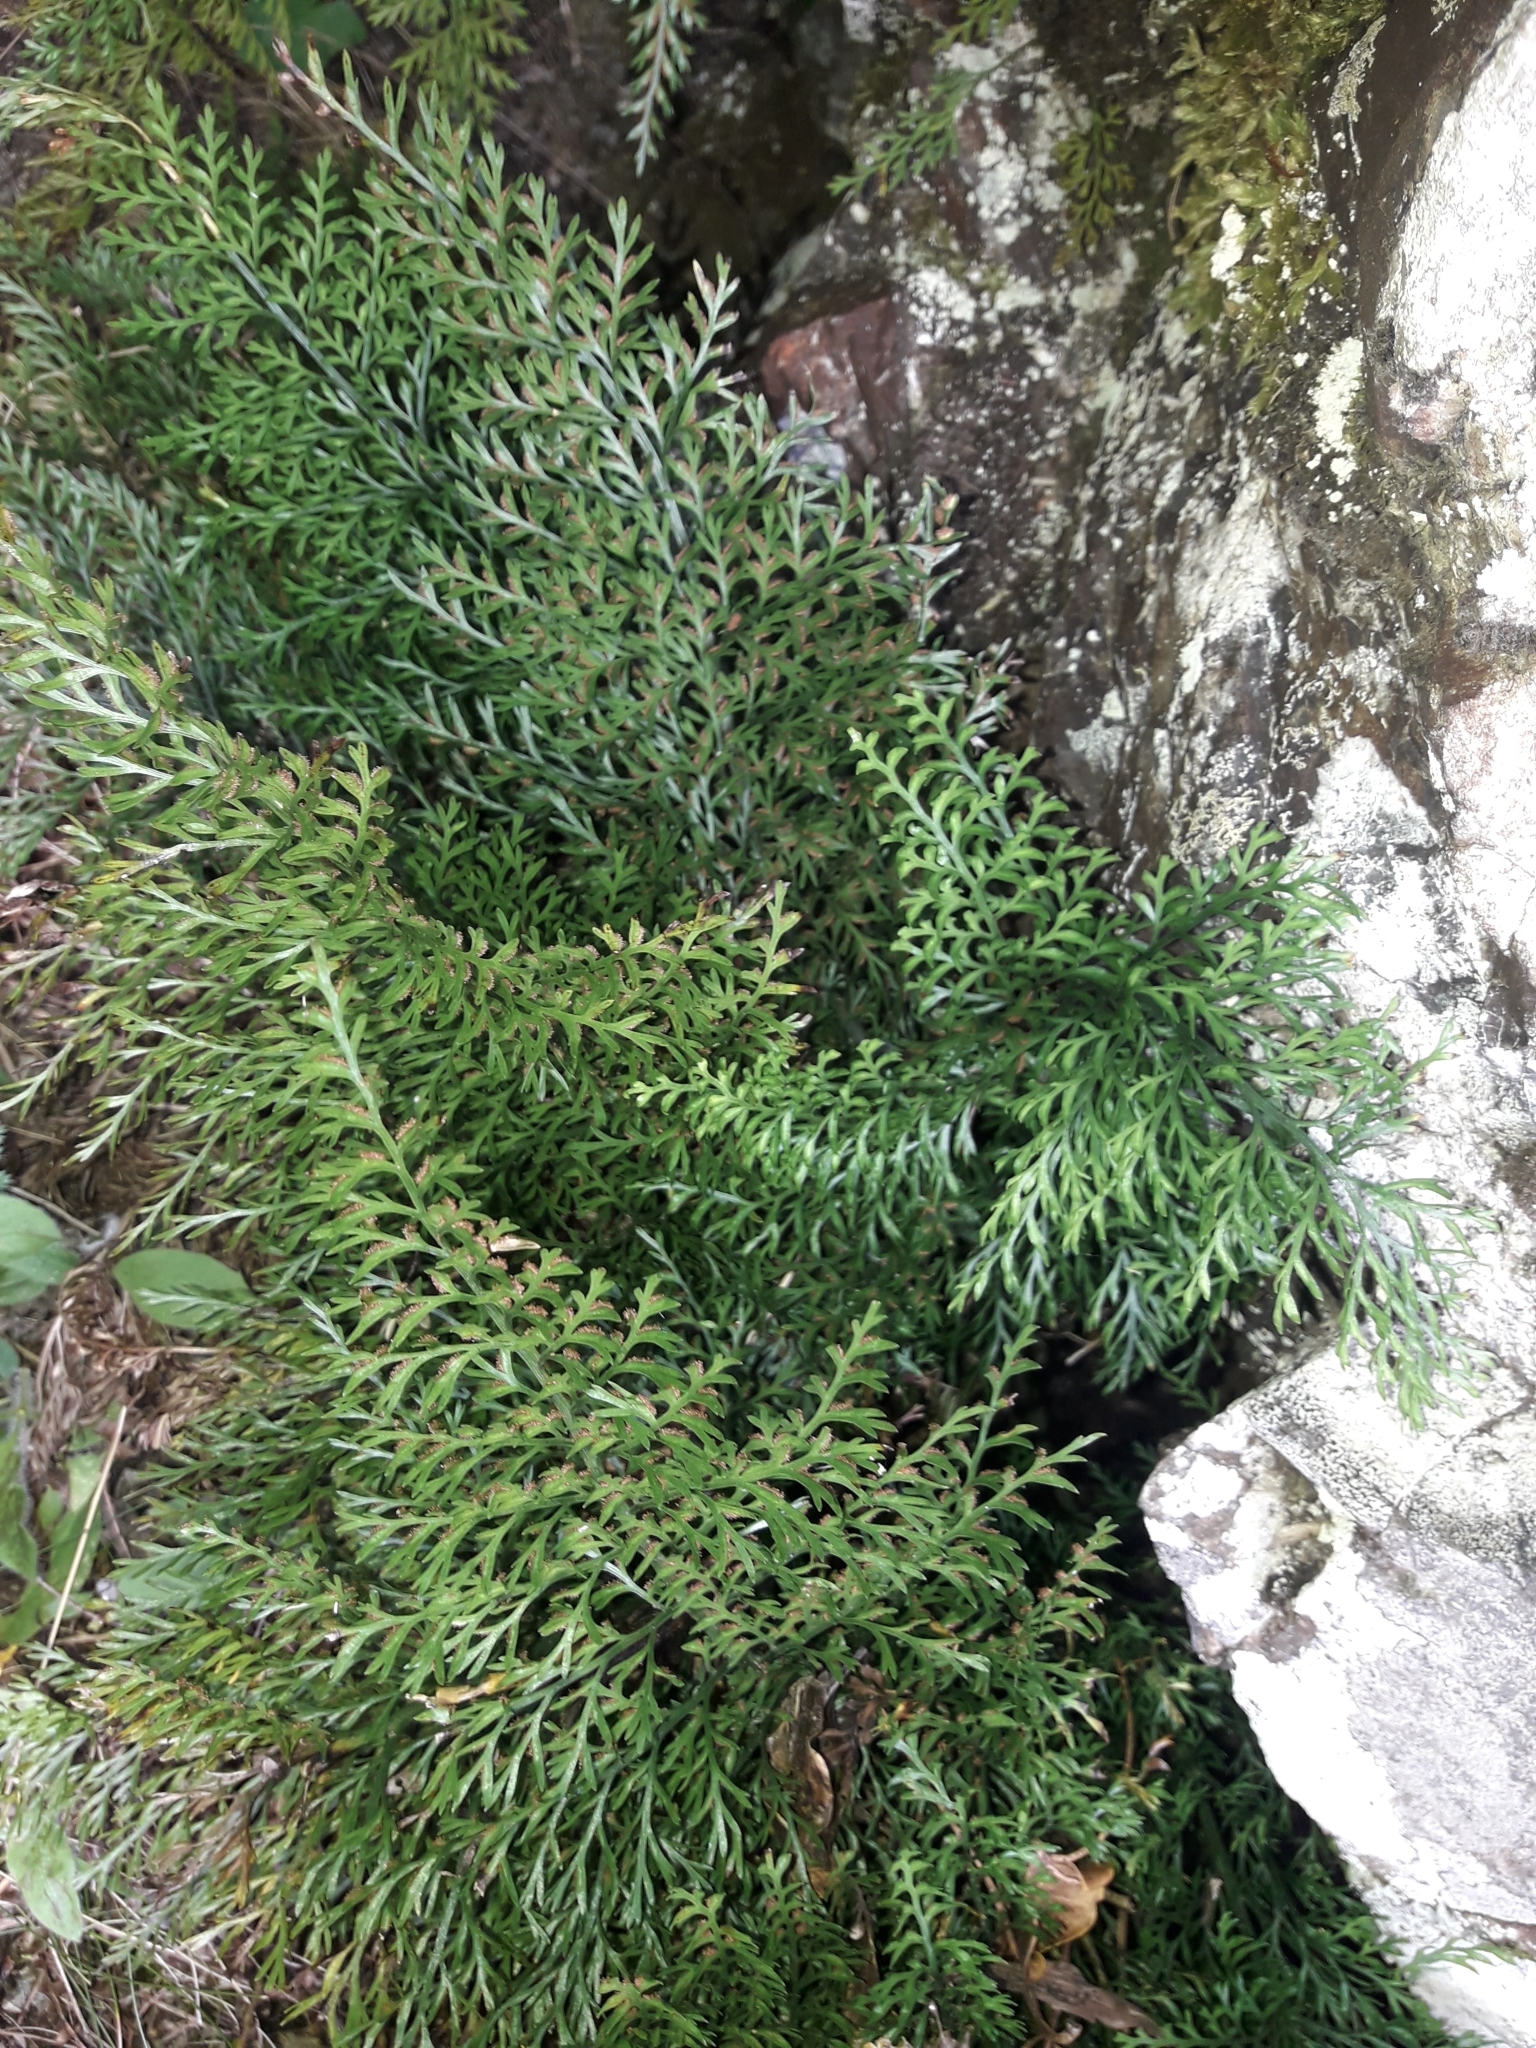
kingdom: Plantae
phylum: Tracheophyta
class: Polypodiopsida
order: Polypodiales
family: Aspleniaceae
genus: Asplenium
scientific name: Asplenium richardii
